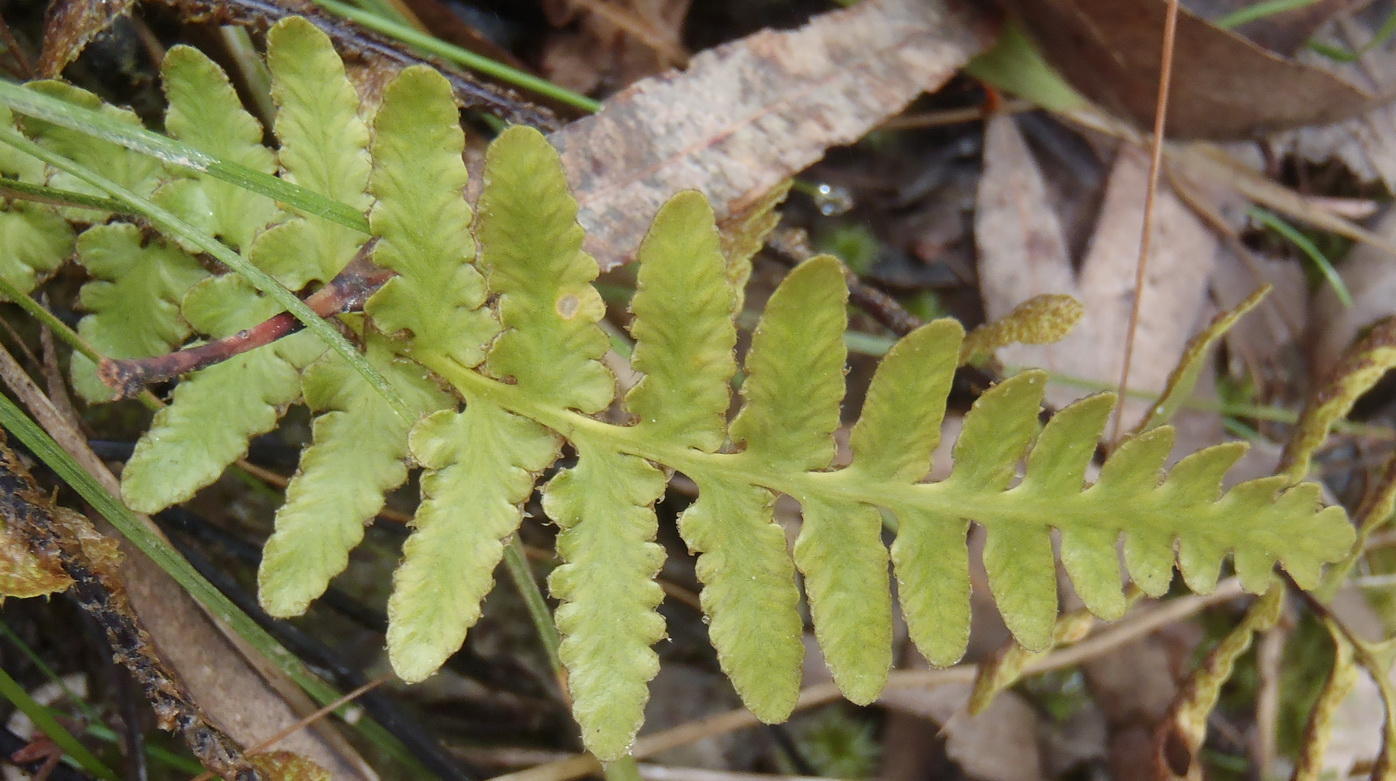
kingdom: Plantae
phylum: Tracheophyta
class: Polypodiopsida
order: Polypodiales
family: Aspleniaceae
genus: Asplenium
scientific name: Asplenium capense
